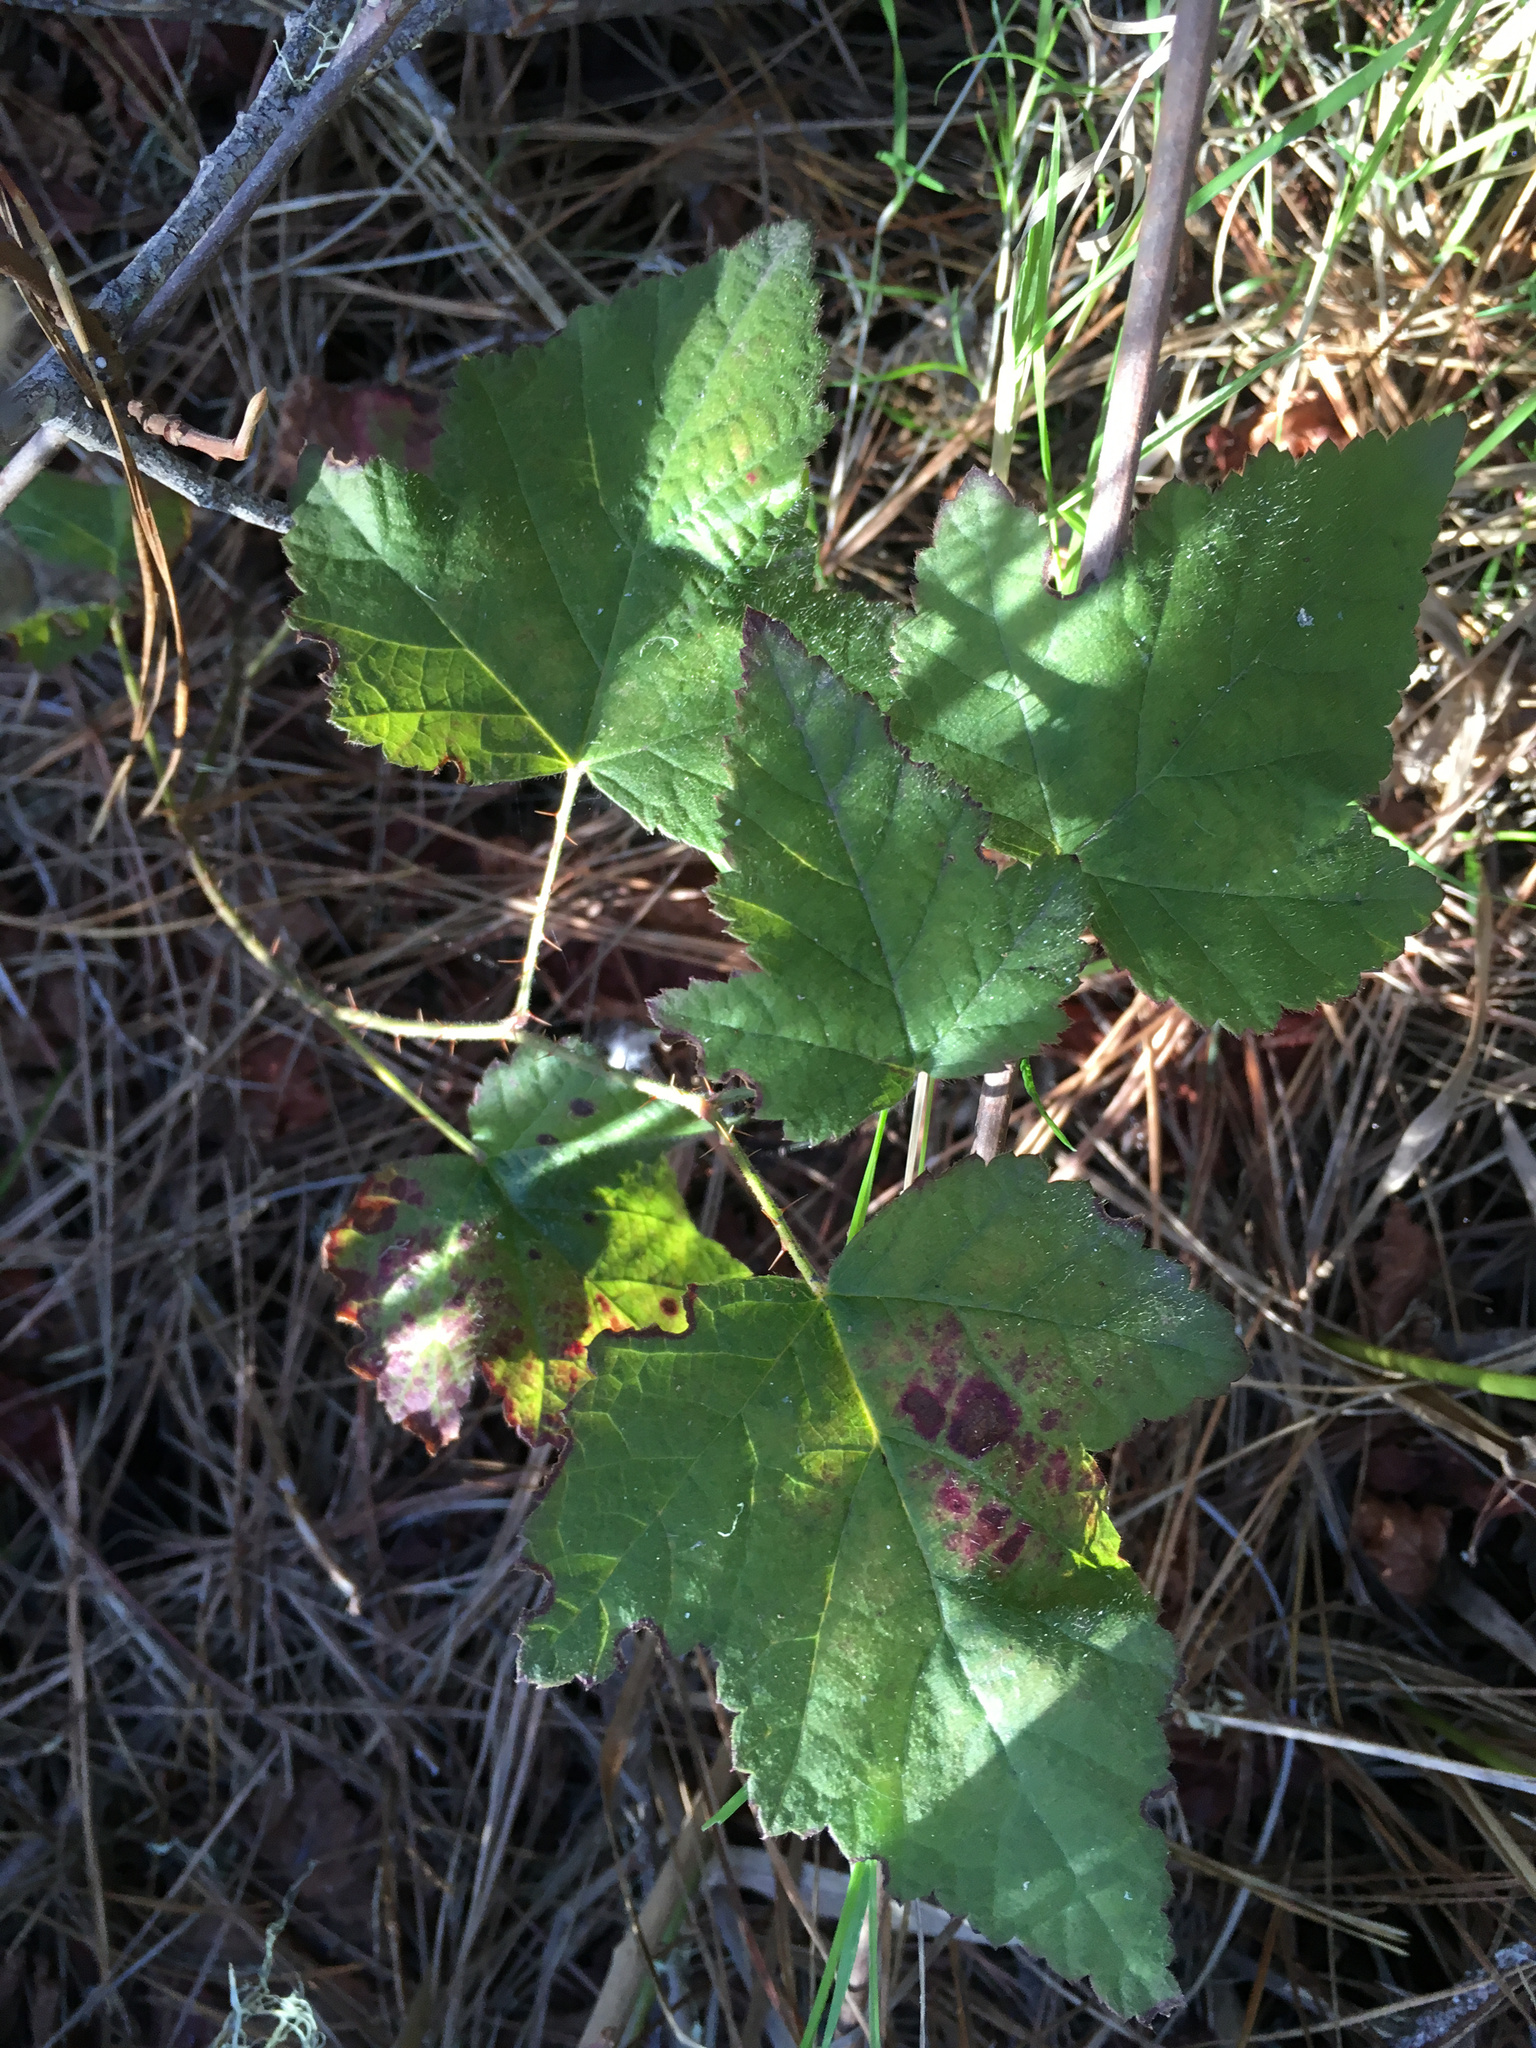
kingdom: Plantae
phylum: Tracheophyta
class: Magnoliopsida
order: Rosales
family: Rosaceae
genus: Rubus
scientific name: Rubus ursinus
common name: Pacific blackberry
